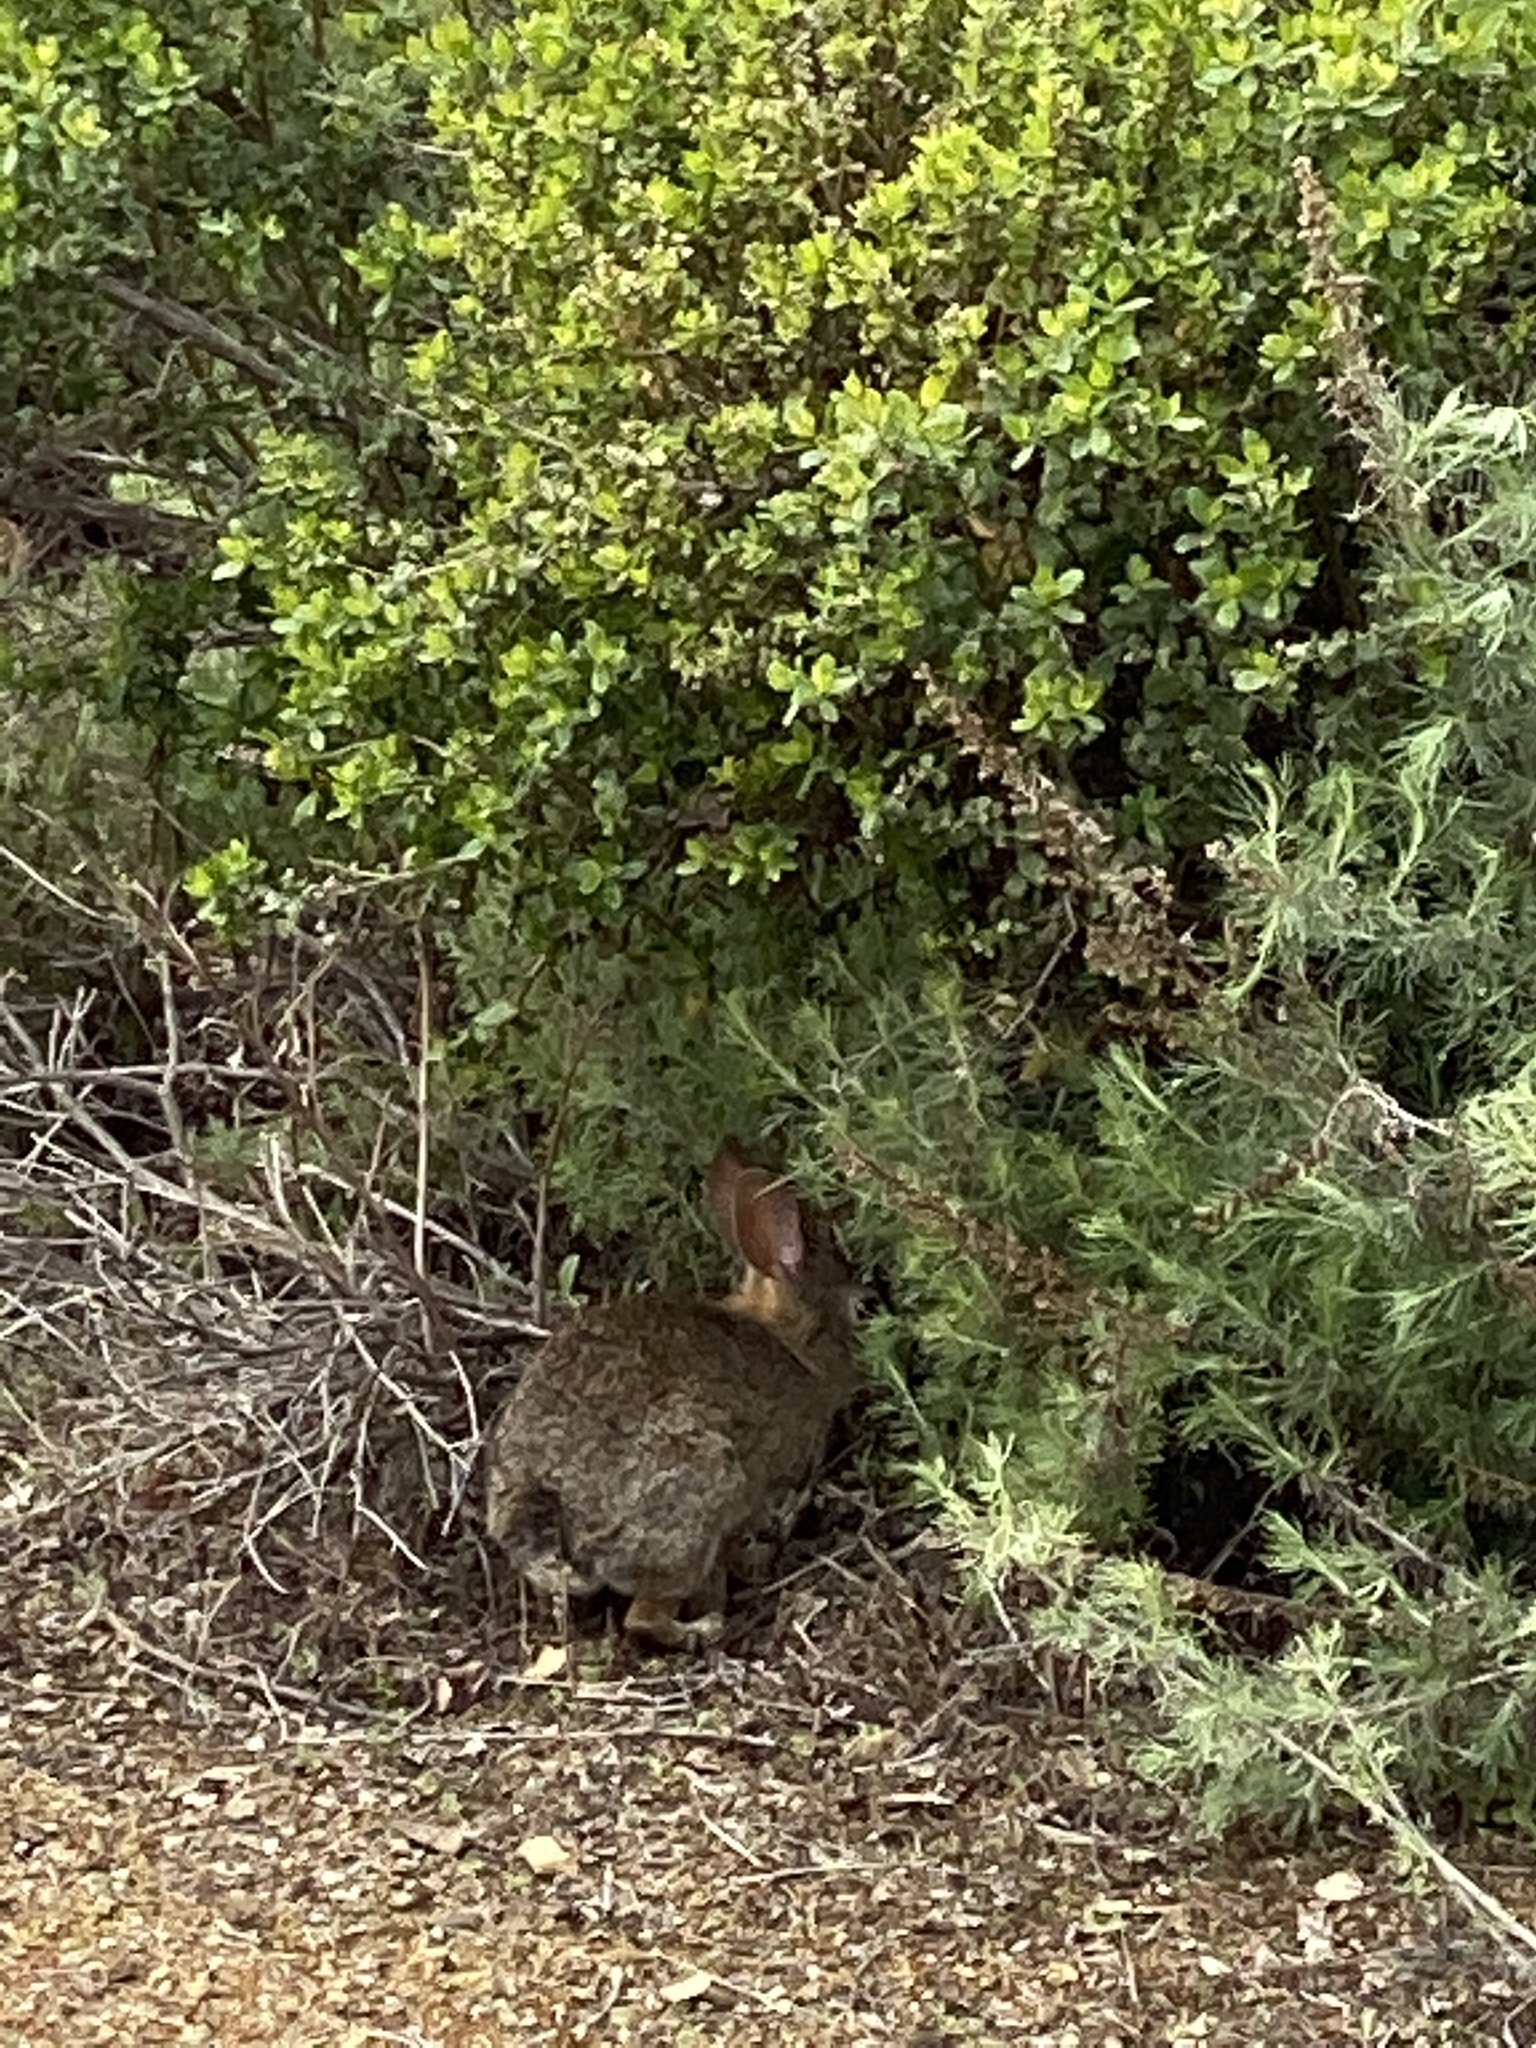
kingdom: Animalia
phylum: Chordata
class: Mammalia
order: Lagomorpha
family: Leporidae
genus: Sylvilagus
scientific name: Sylvilagus bachmani
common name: Brush rabbit
